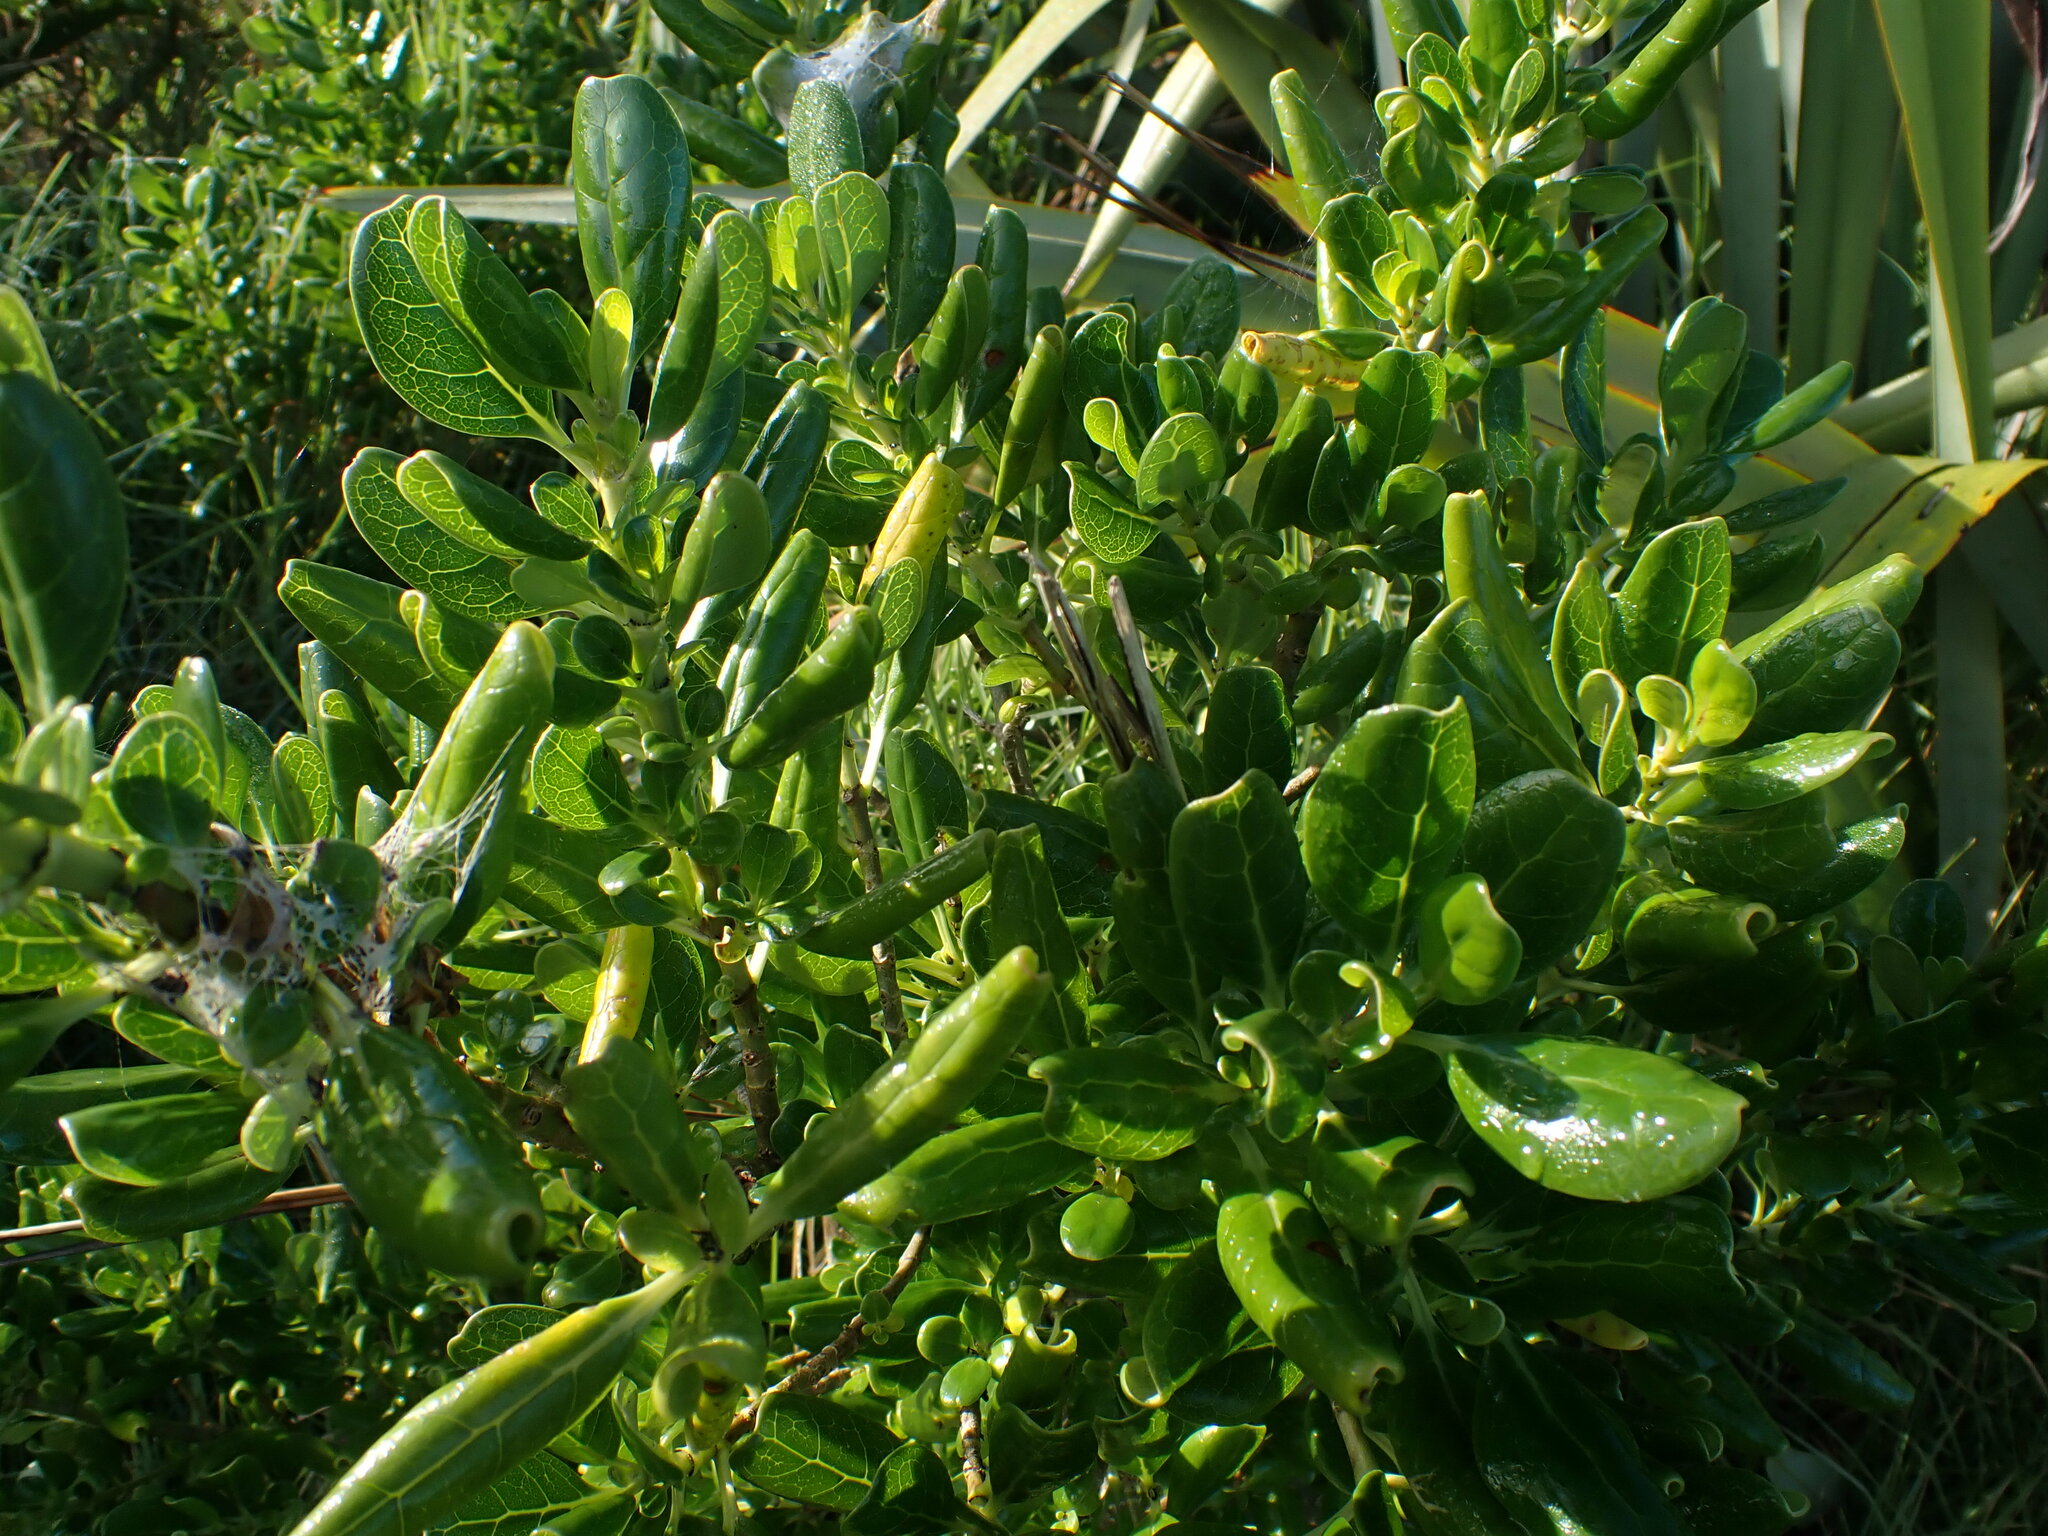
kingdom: Plantae
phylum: Tracheophyta
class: Magnoliopsida
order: Gentianales
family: Rubiaceae
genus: Coprosma
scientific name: Coprosma repens
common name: Tree bedstraw
